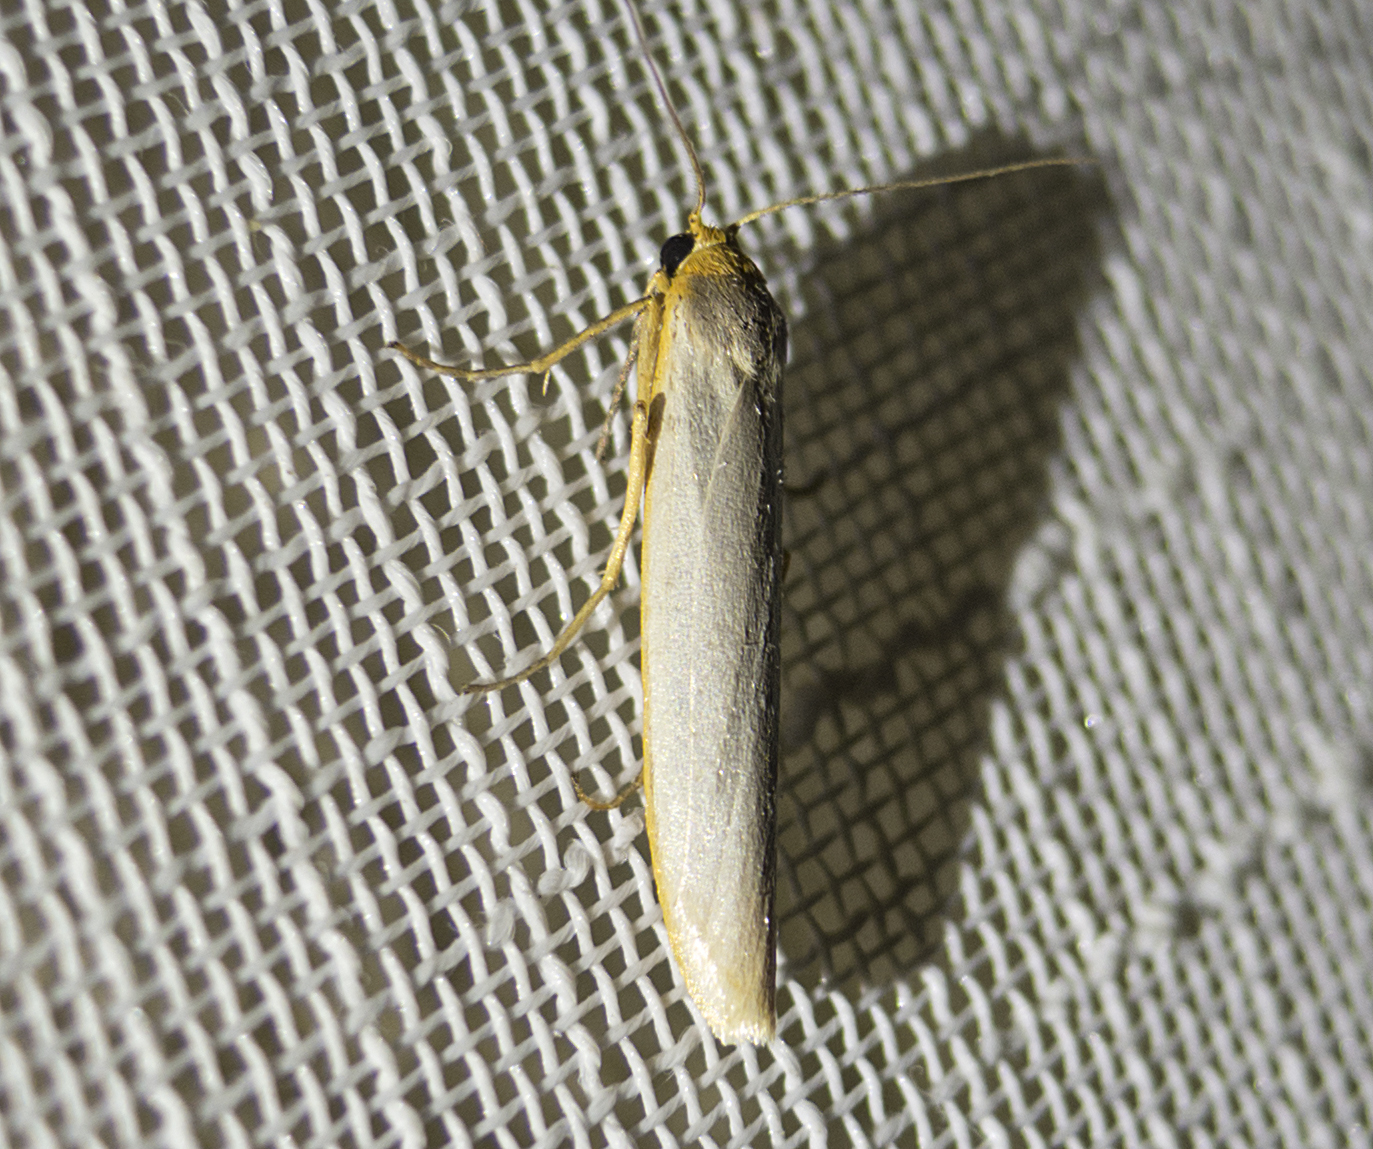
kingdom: Animalia
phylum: Arthropoda
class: Insecta
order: Lepidoptera
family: Erebidae
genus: Eilema
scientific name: Eilema caniola
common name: Hoary footman
